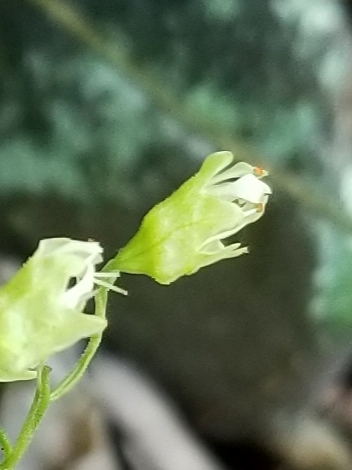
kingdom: Plantae
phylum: Tracheophyta
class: Magnoliopsida
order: Saxifragales
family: Saxifragaceae
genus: Heuchera
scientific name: Heuchera alba
